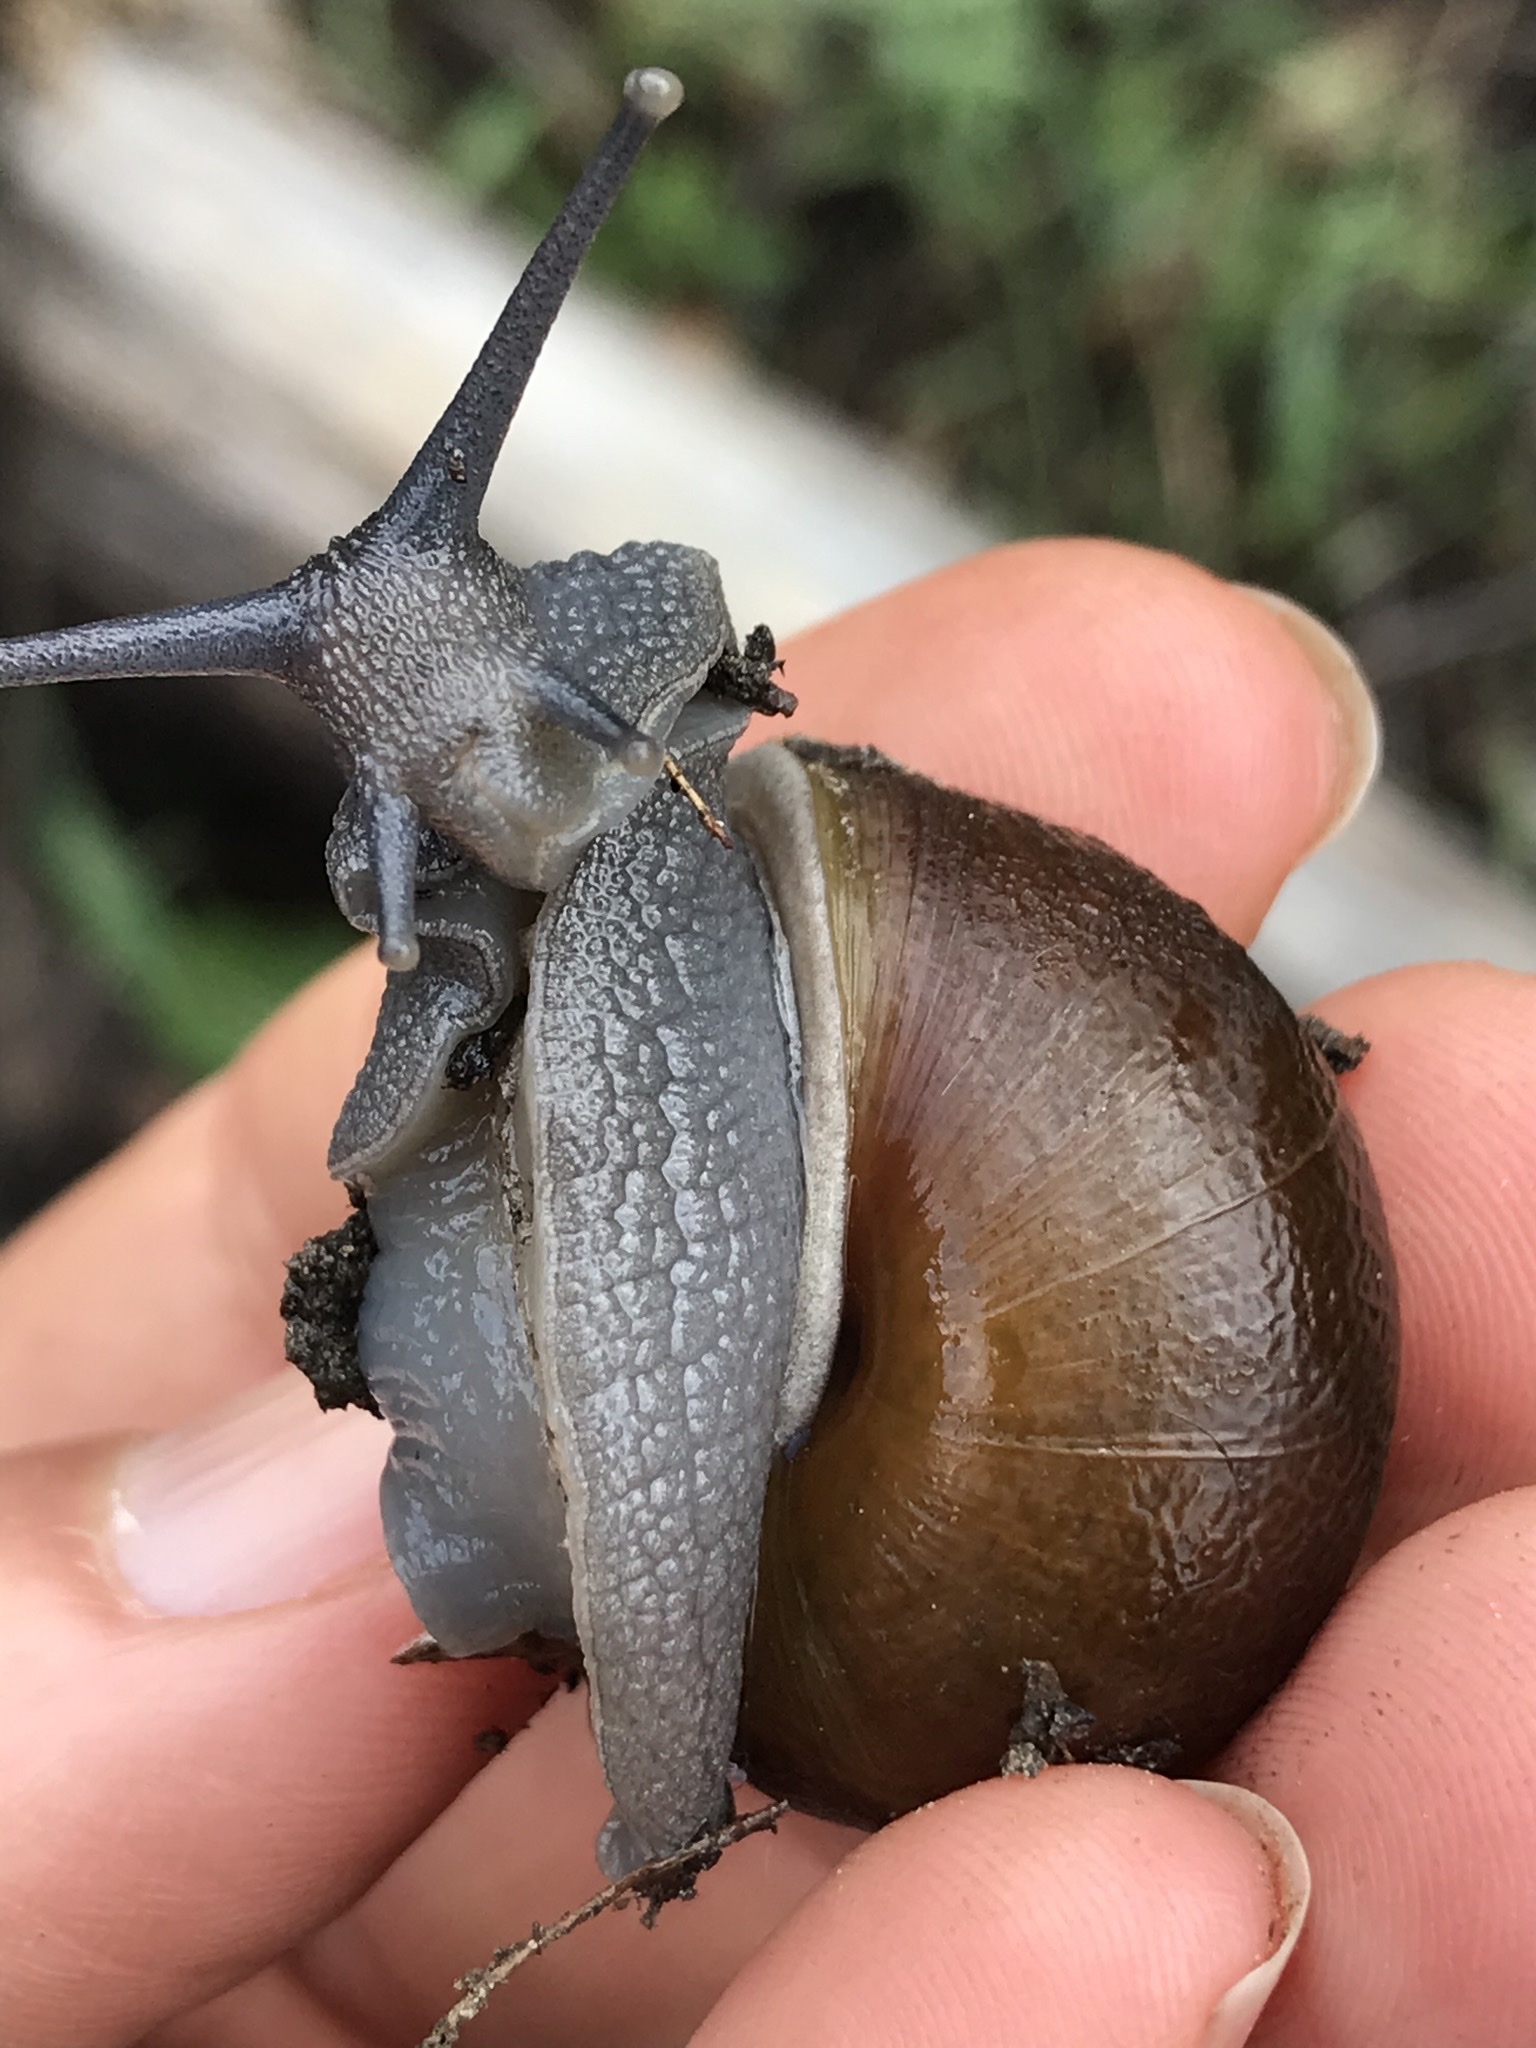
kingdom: Animalia
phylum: Mollusca
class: Gastropoda
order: Stylommatophora
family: Xanthonychidae
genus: Helminthoglypta
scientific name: Helminthoglypta tudiculata
